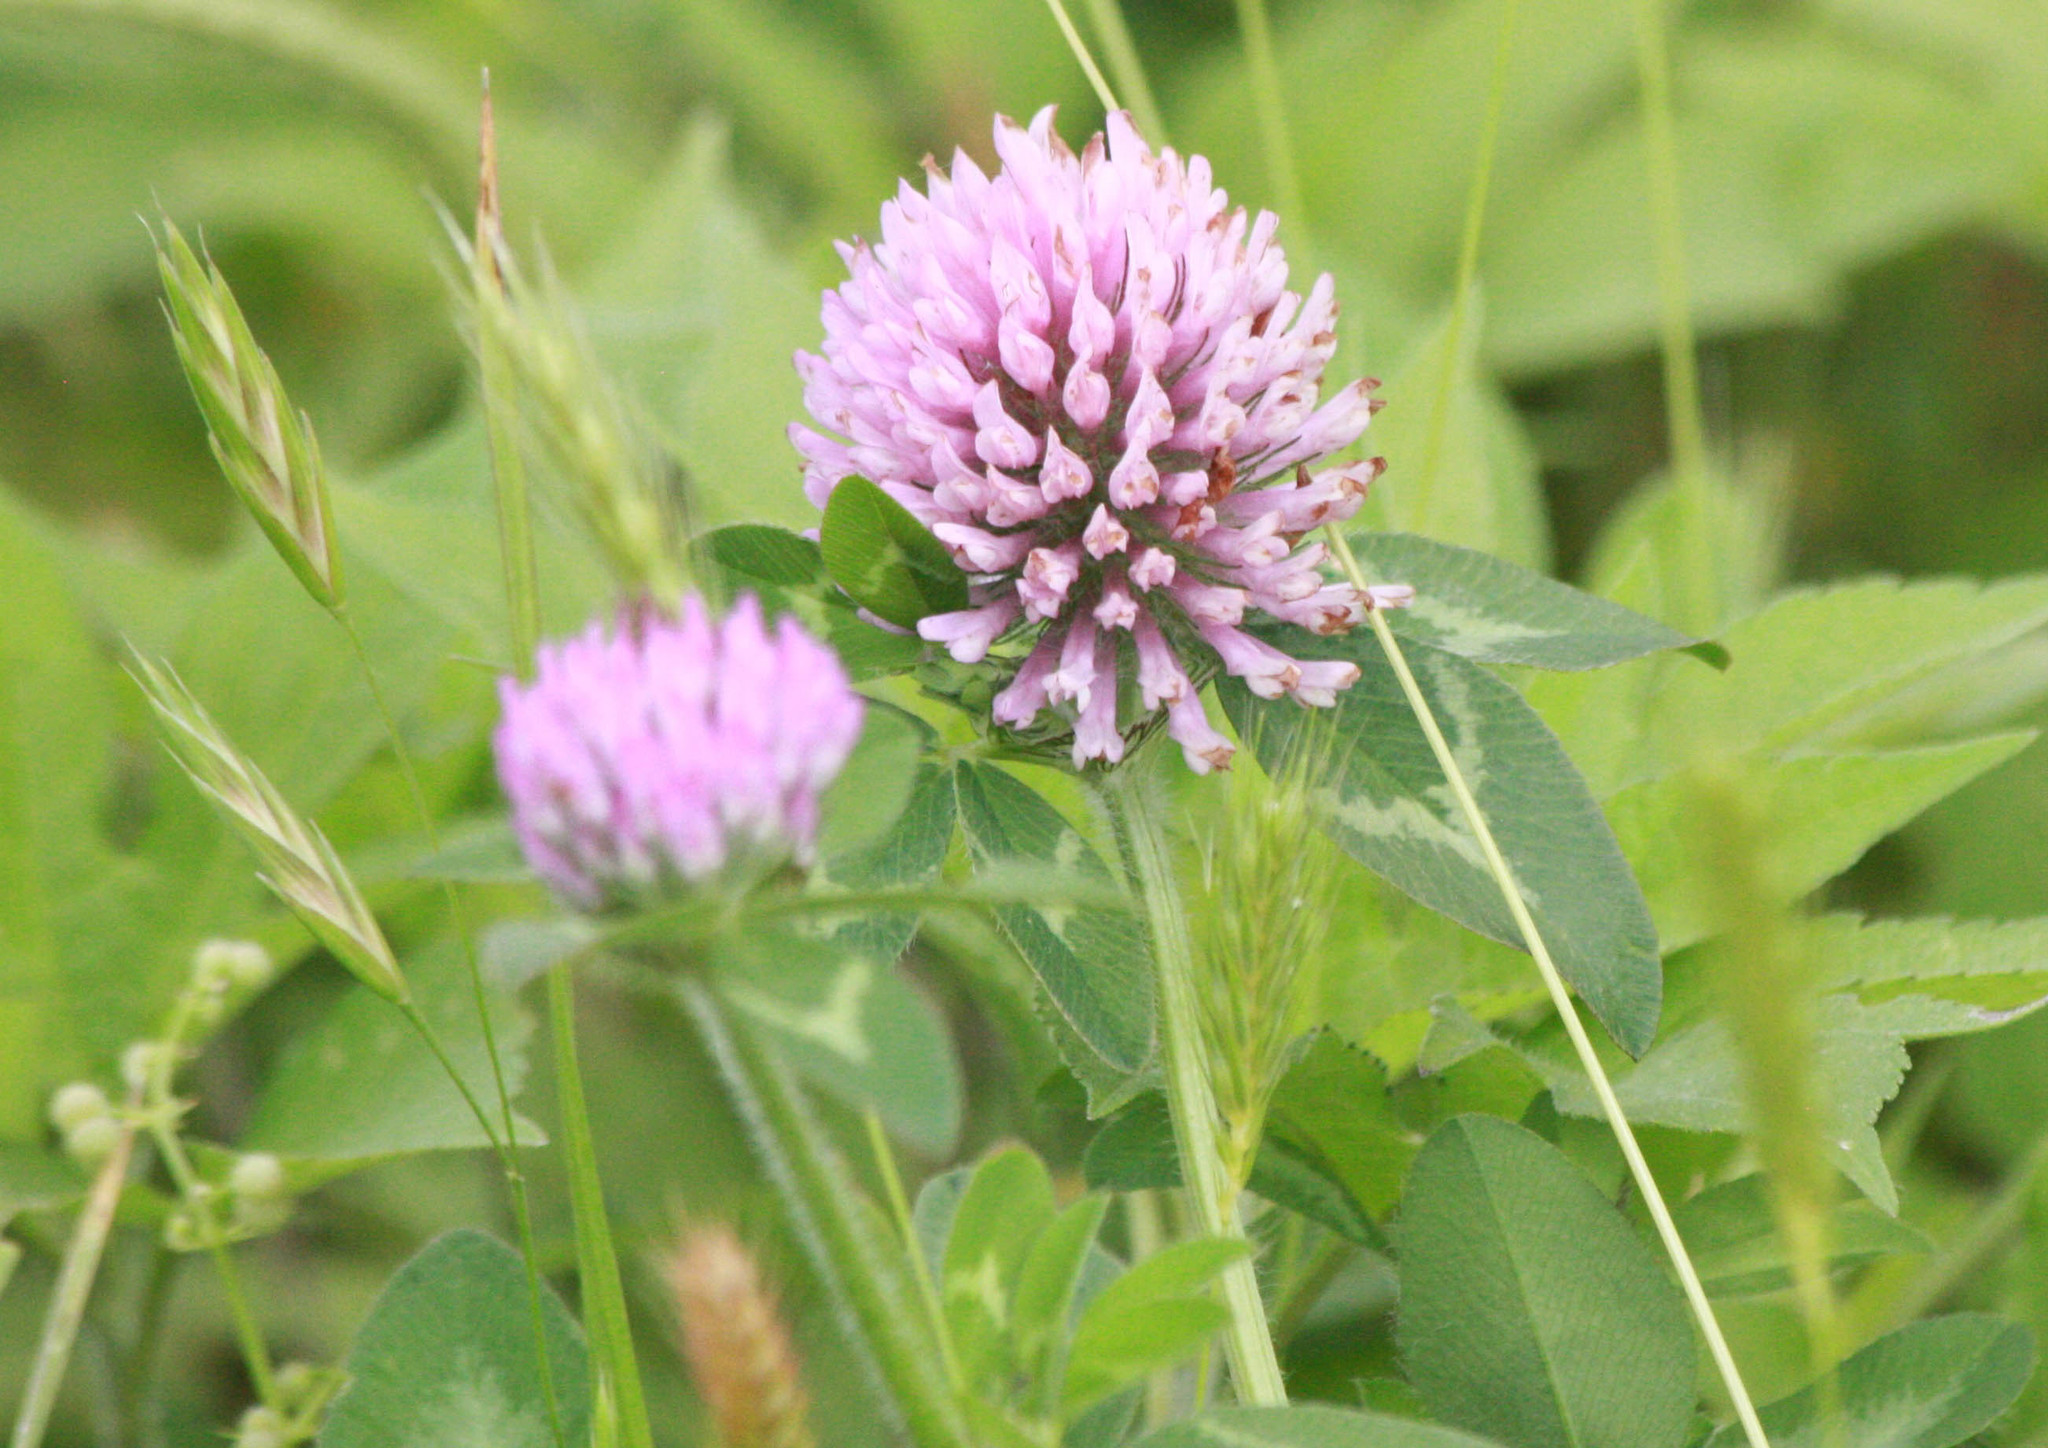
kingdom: Plantae
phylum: Tracheophyta
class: Magnoliopsida
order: Fabales
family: Fabaceae
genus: Trifolium
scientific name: Trifolium pratense
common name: Red clover
